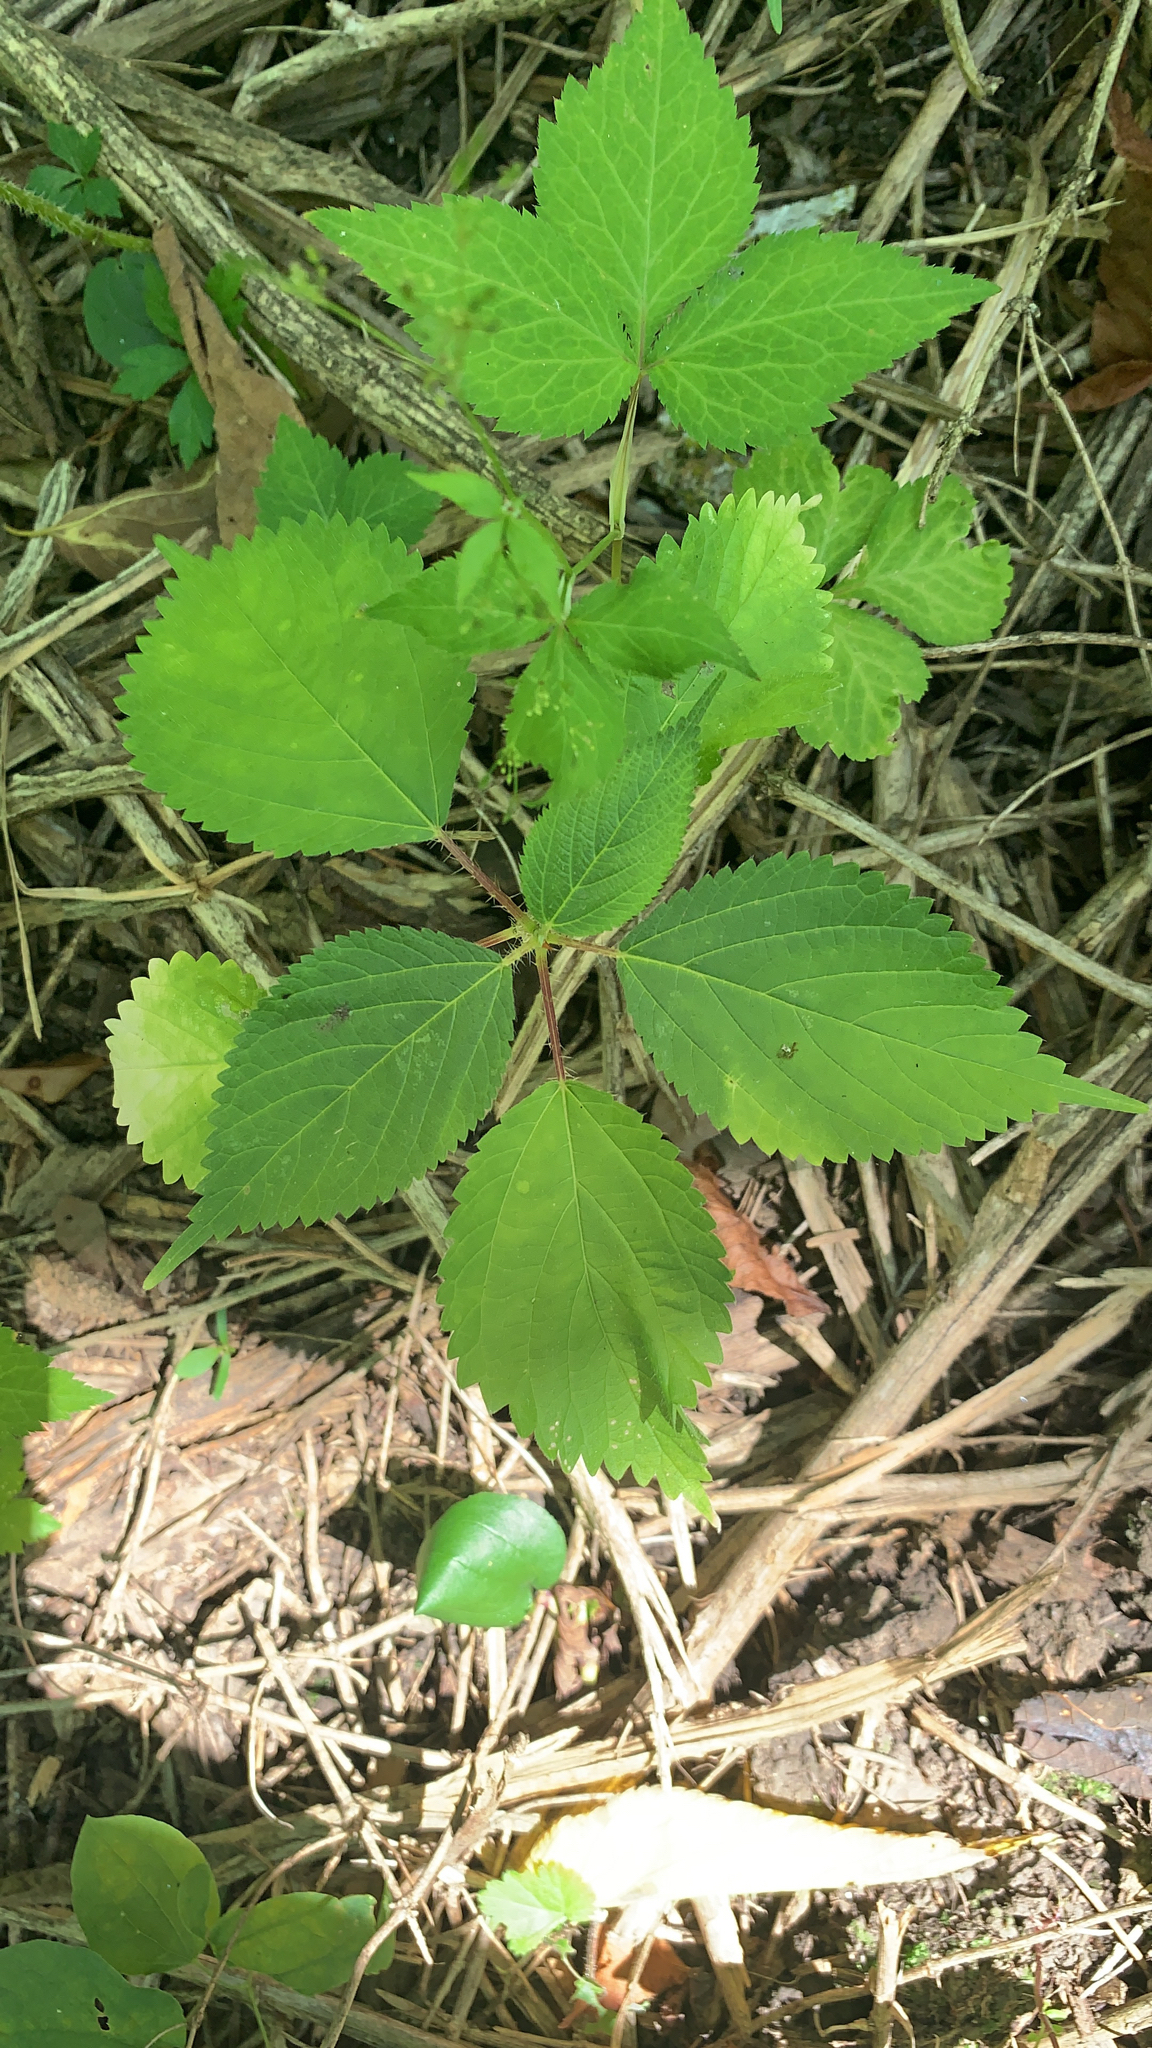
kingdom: Plantae
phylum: Tracheophyta
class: Magnoliopsida
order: Rosales
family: Urticaceae
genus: Laportea
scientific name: Laportea canadensis
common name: Canada nettle
